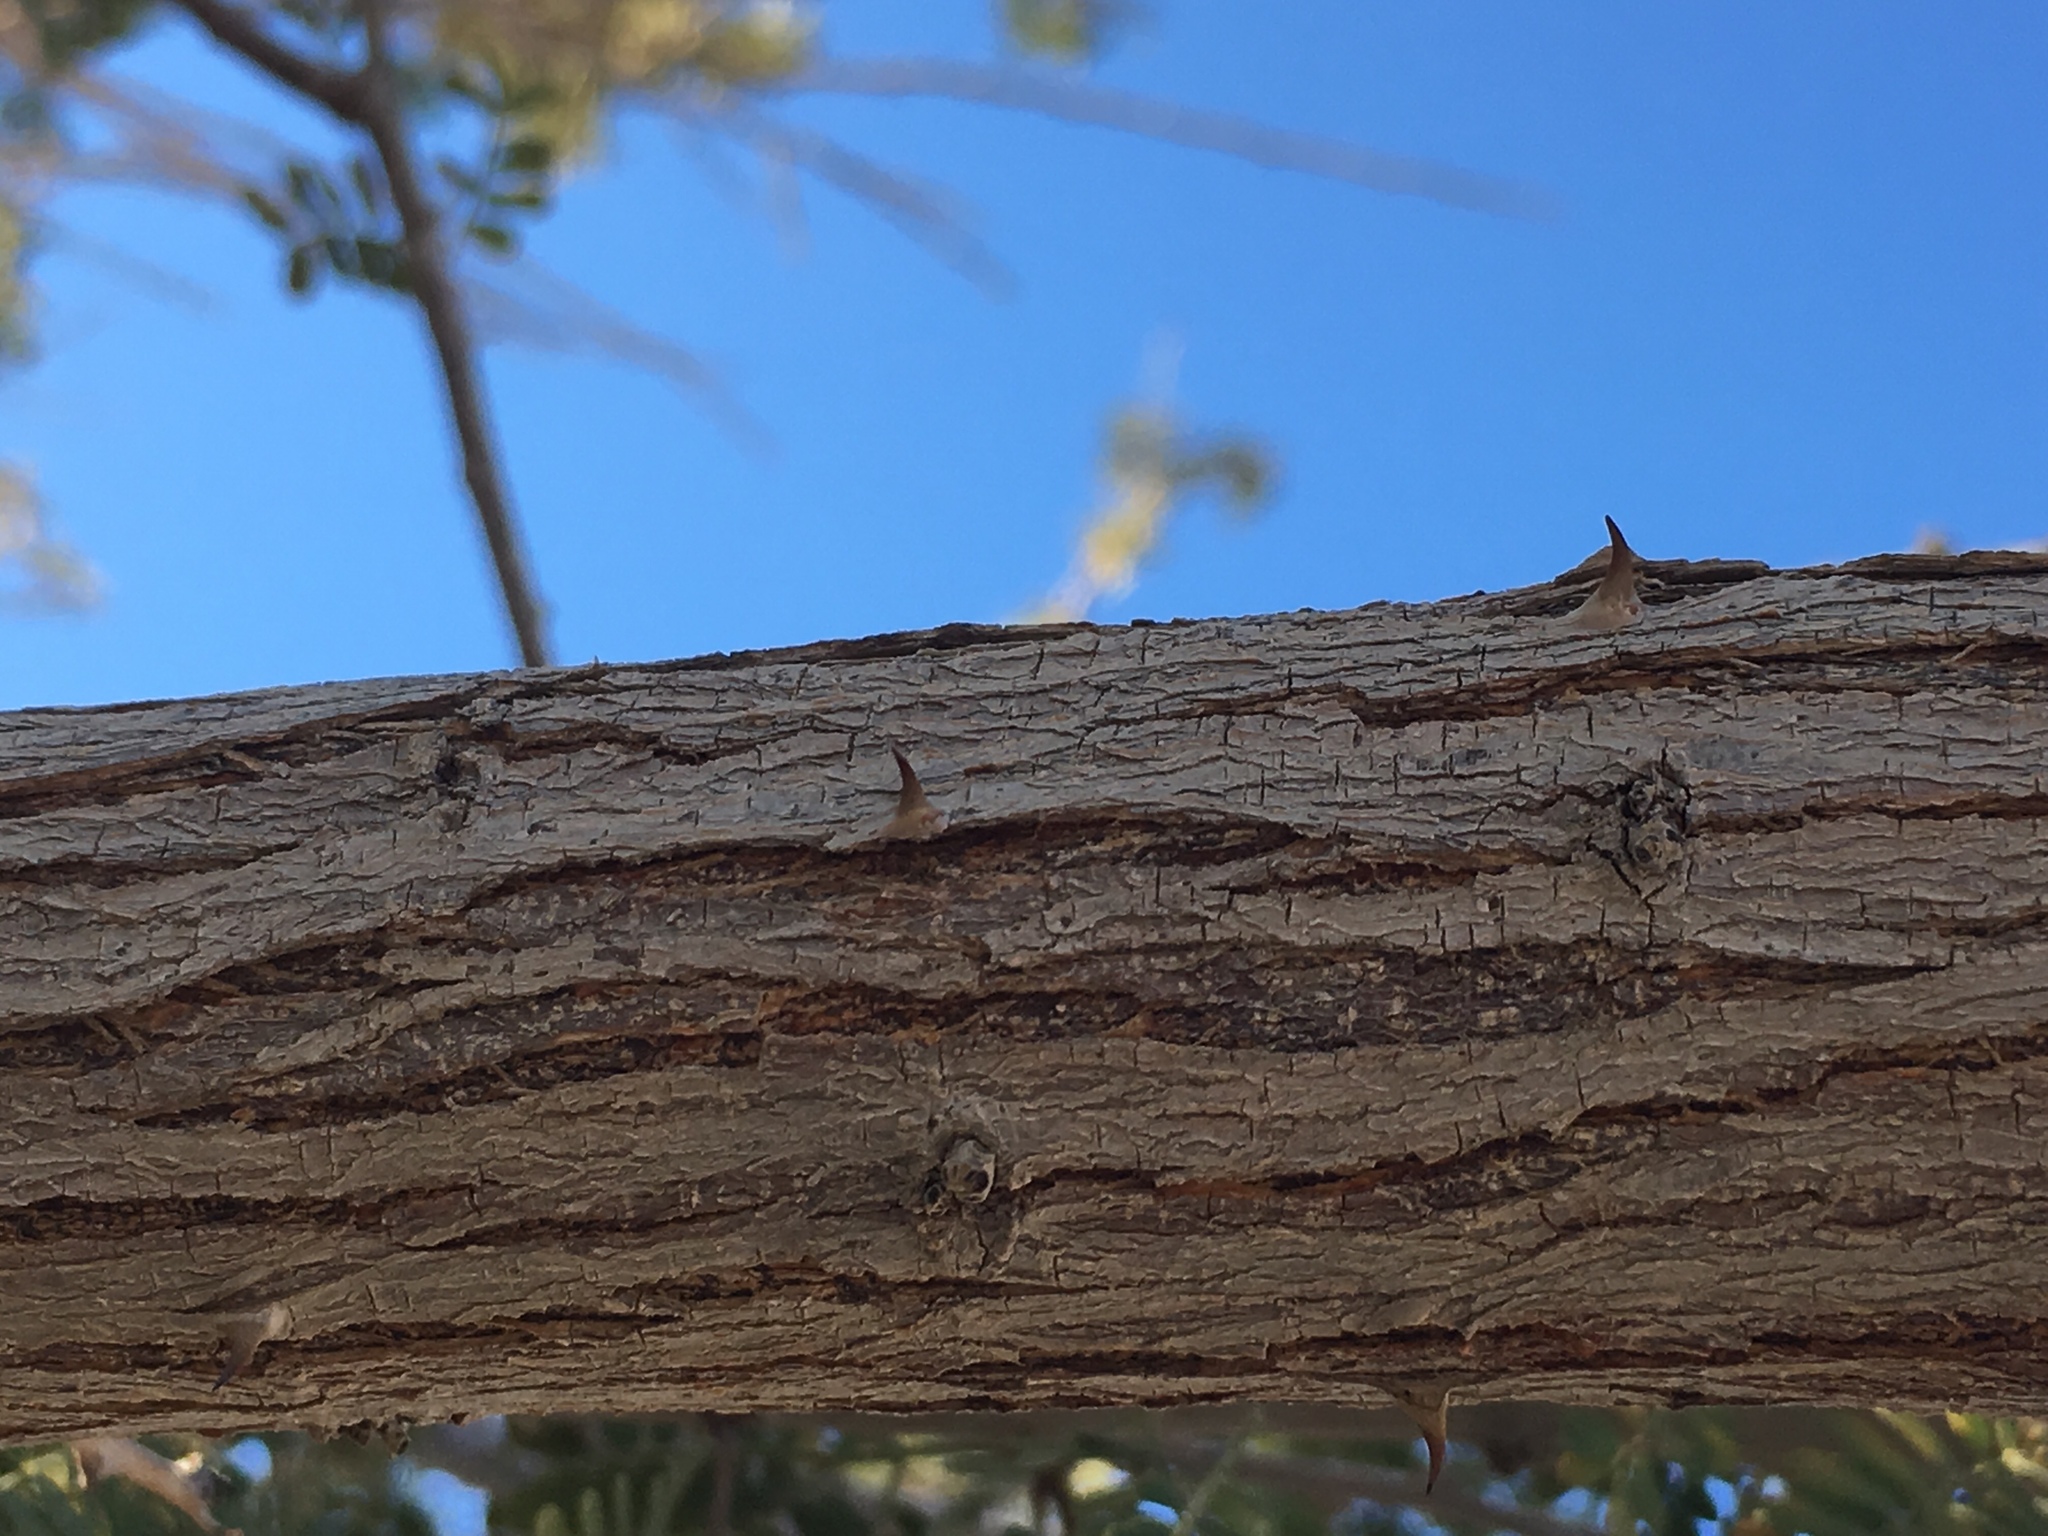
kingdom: Plantae
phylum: Tracheophyta
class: Magnoliopsida
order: Fabales
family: Fabaceae
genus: Senegalia
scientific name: Senegalia greggii
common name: Texas-mimosa
